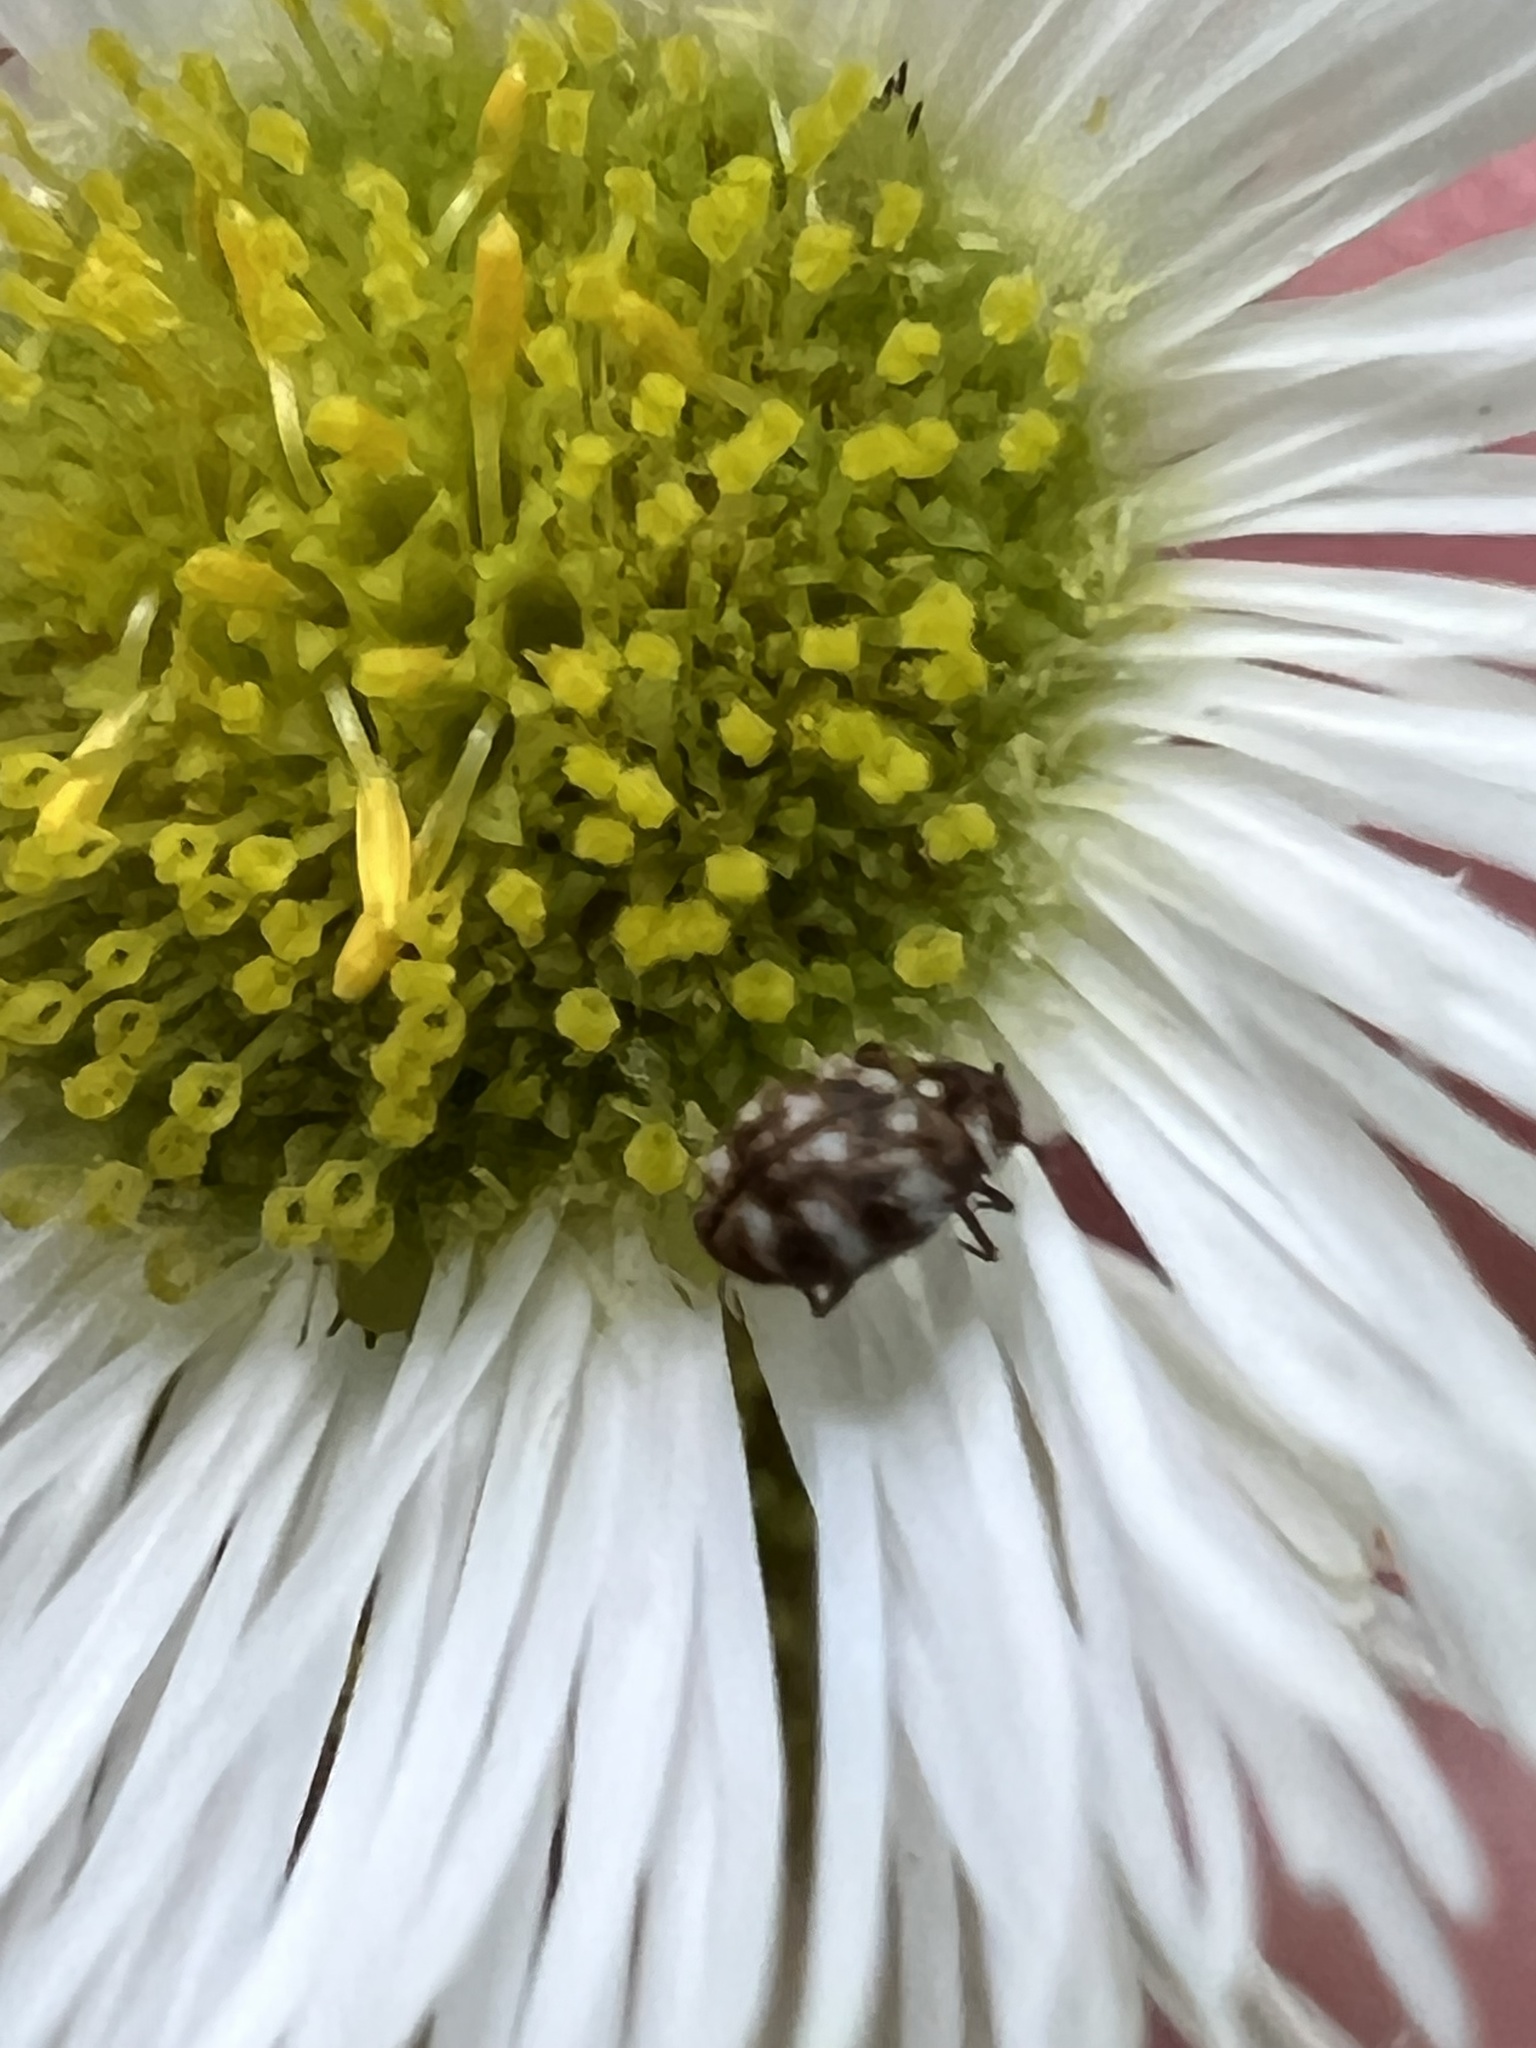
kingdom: Animalia
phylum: Arthropoda
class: Insecta
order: Coleoptera
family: Dermestidae
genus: Anthrenus
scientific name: Anthrenus verbasci
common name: Varied carpet beetle
